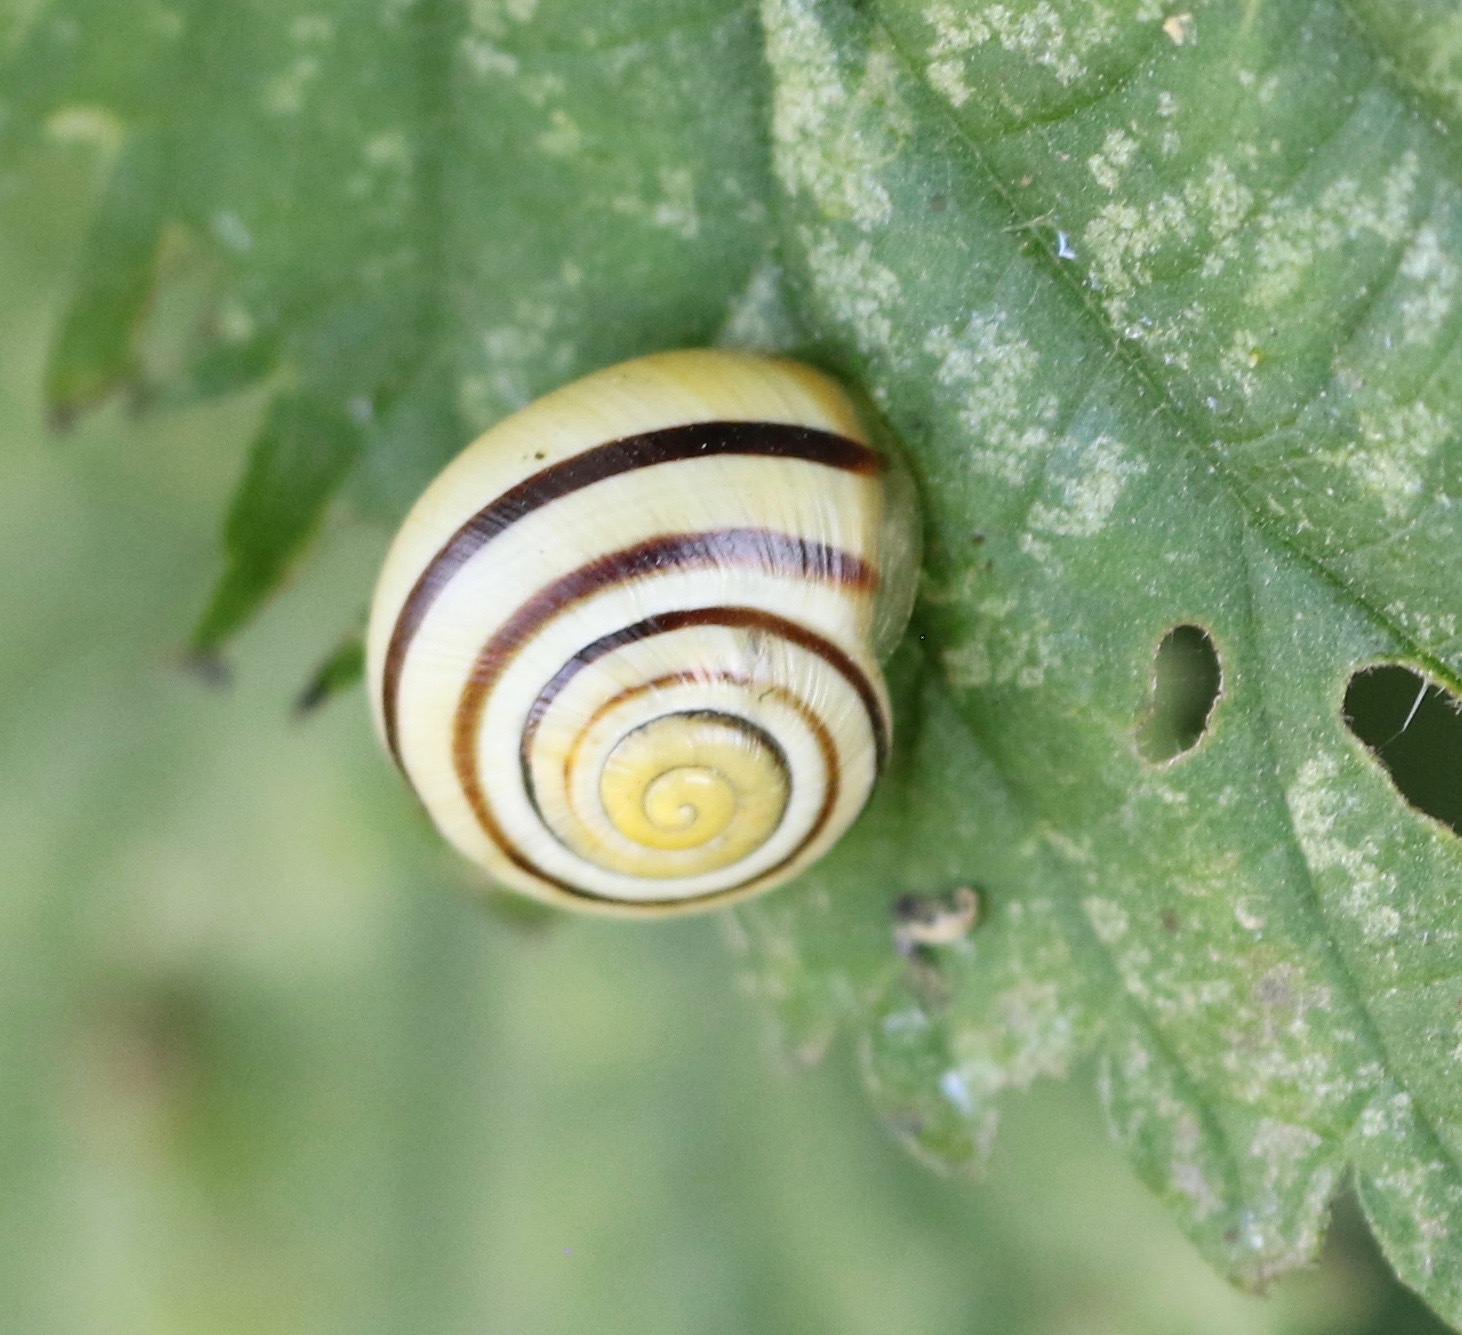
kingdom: Animalia
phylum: Mollusca
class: Gastropoda
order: Stylommatophora
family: Helicidae
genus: Cepaea
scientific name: Cepaea hortensis
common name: White-lip gardensnail
